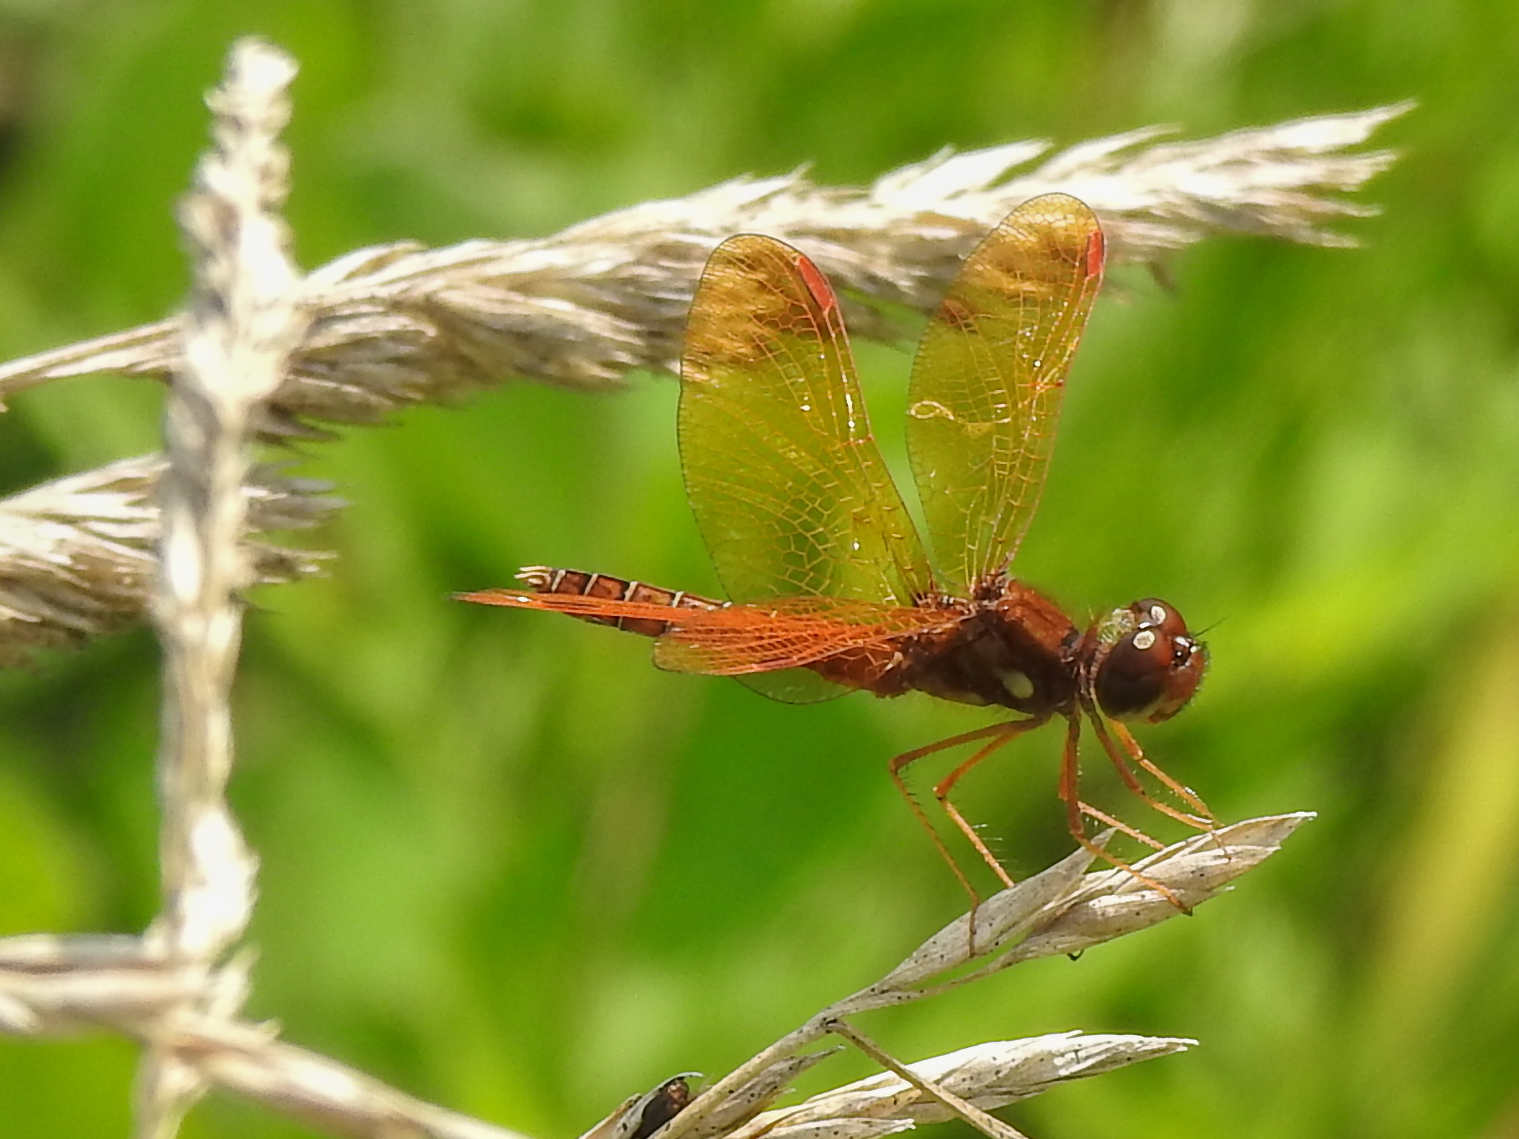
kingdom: Animalia
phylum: Arthropoda
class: Insecta
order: Odonata
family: Libellulidae
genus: Perithemis
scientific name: Perithemis tenera
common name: Eastern amberwing
